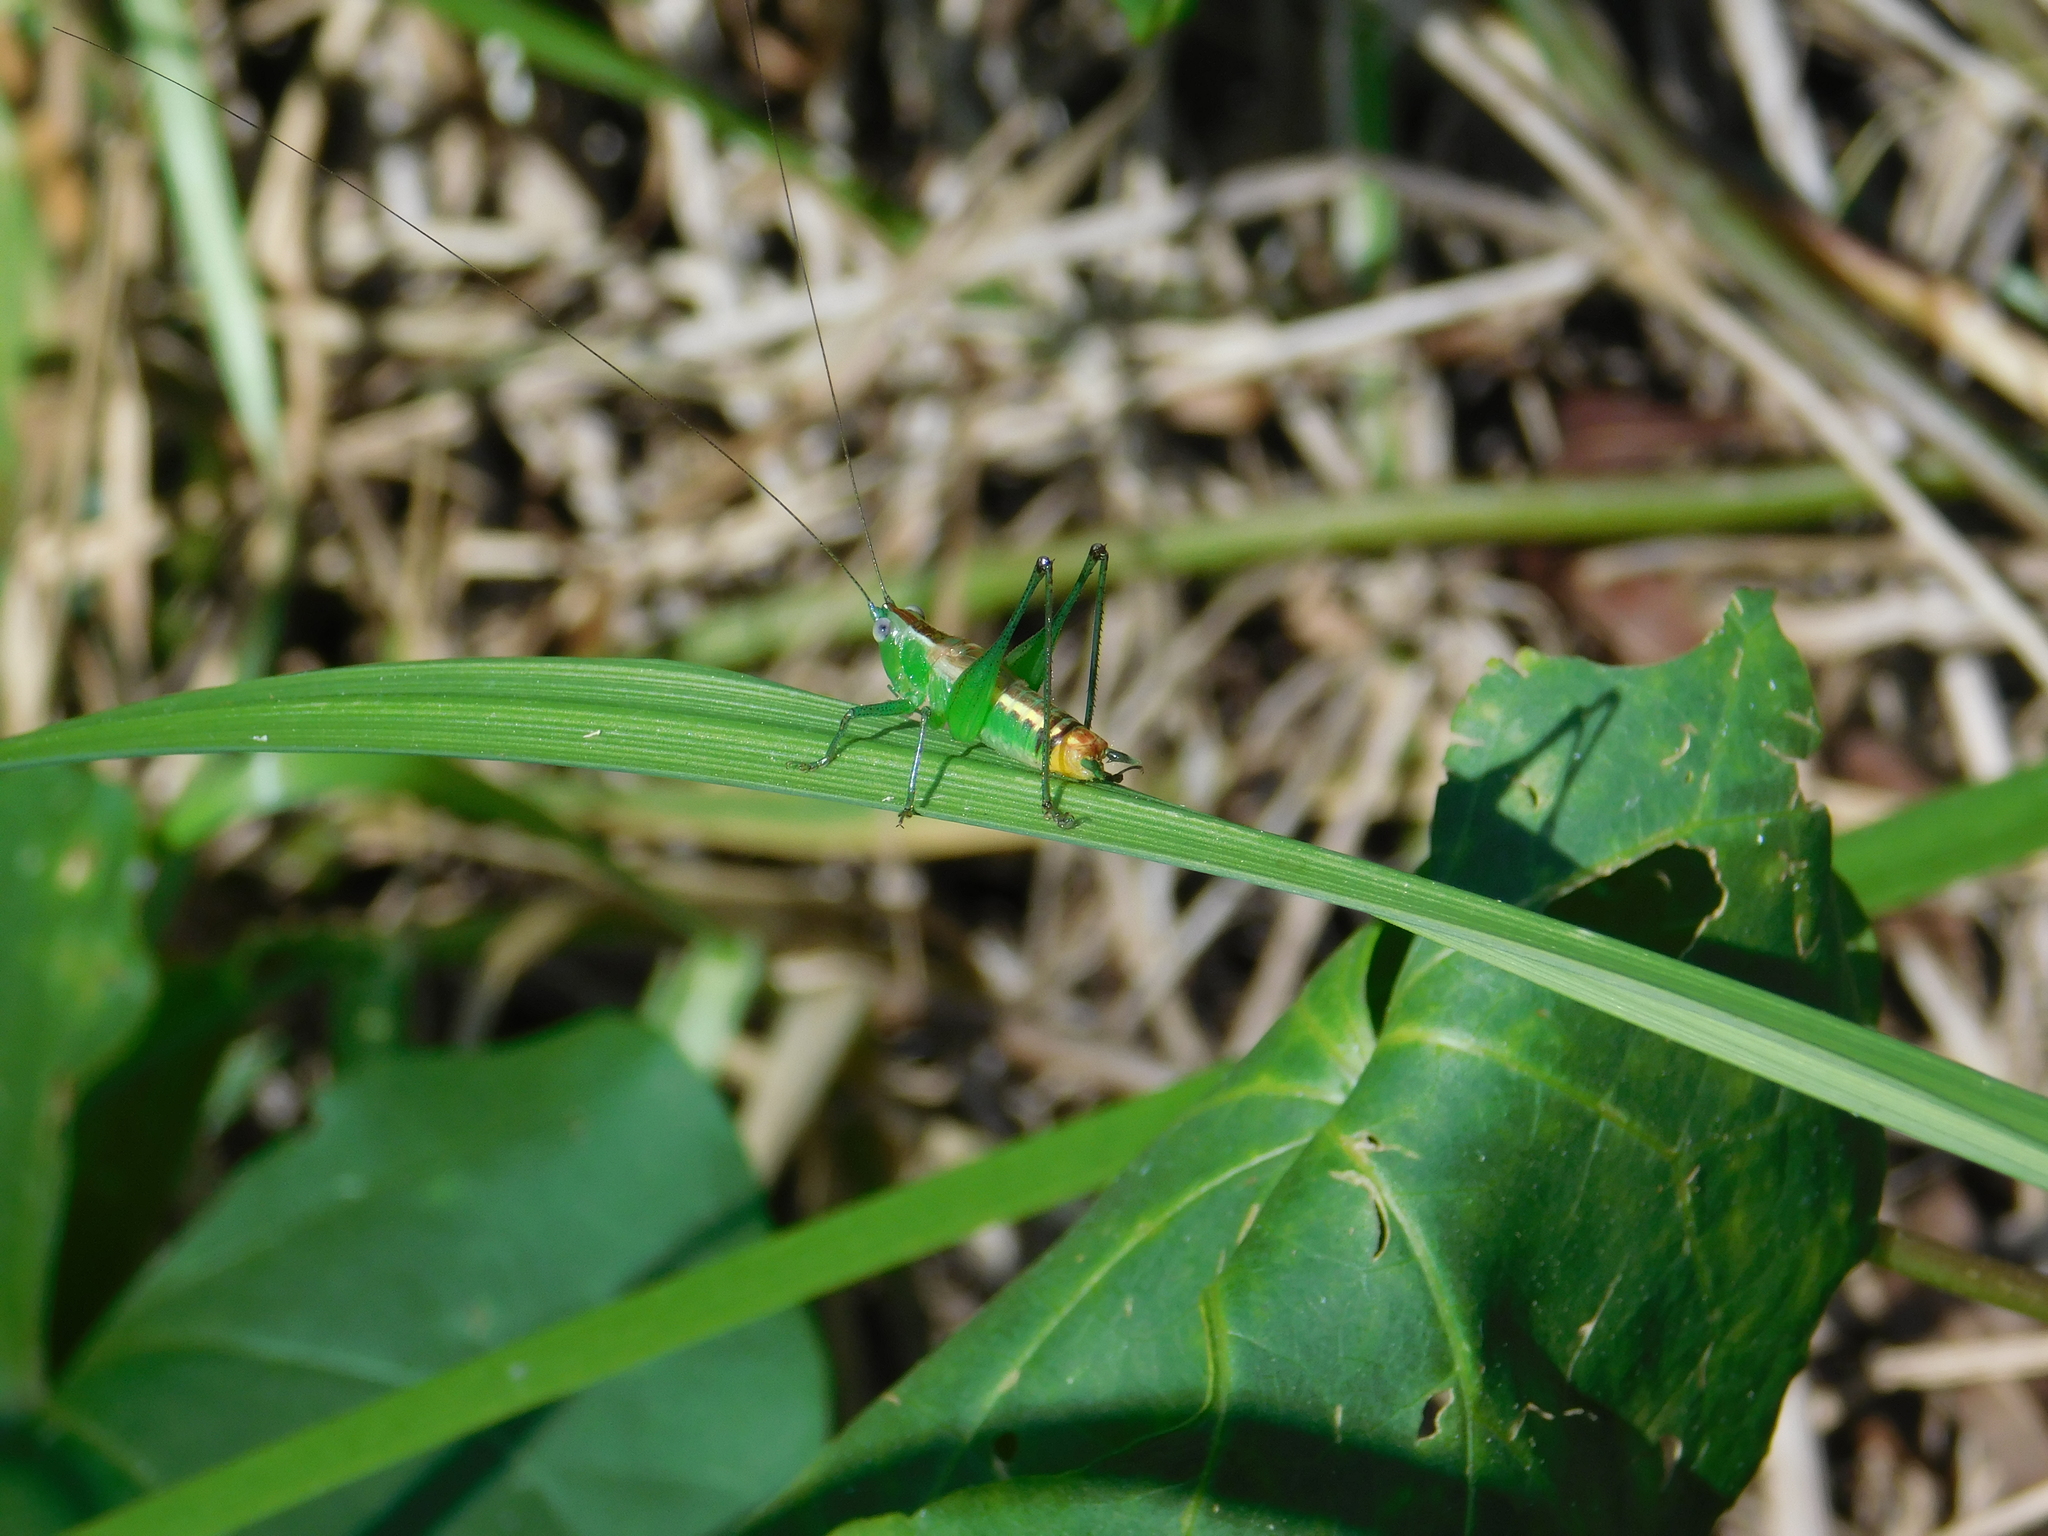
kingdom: Animalia
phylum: Arthropoda
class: Insecta
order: Orthoptera
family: Tettigoniidae
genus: Conocephalus
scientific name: Conocephalus ochrotelus
